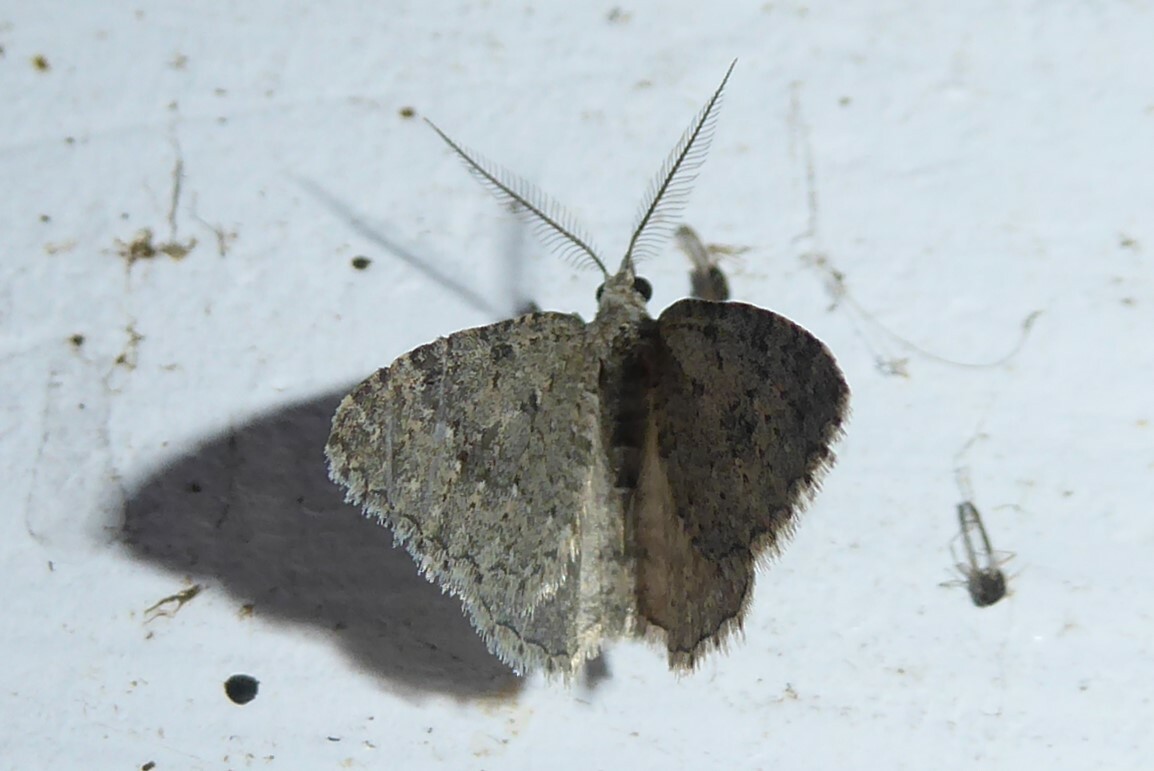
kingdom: Animalia
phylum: Arthropoda
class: Insecta
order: Lepidoptera
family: Geometridae
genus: Helastia
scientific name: Helastia corcularia
